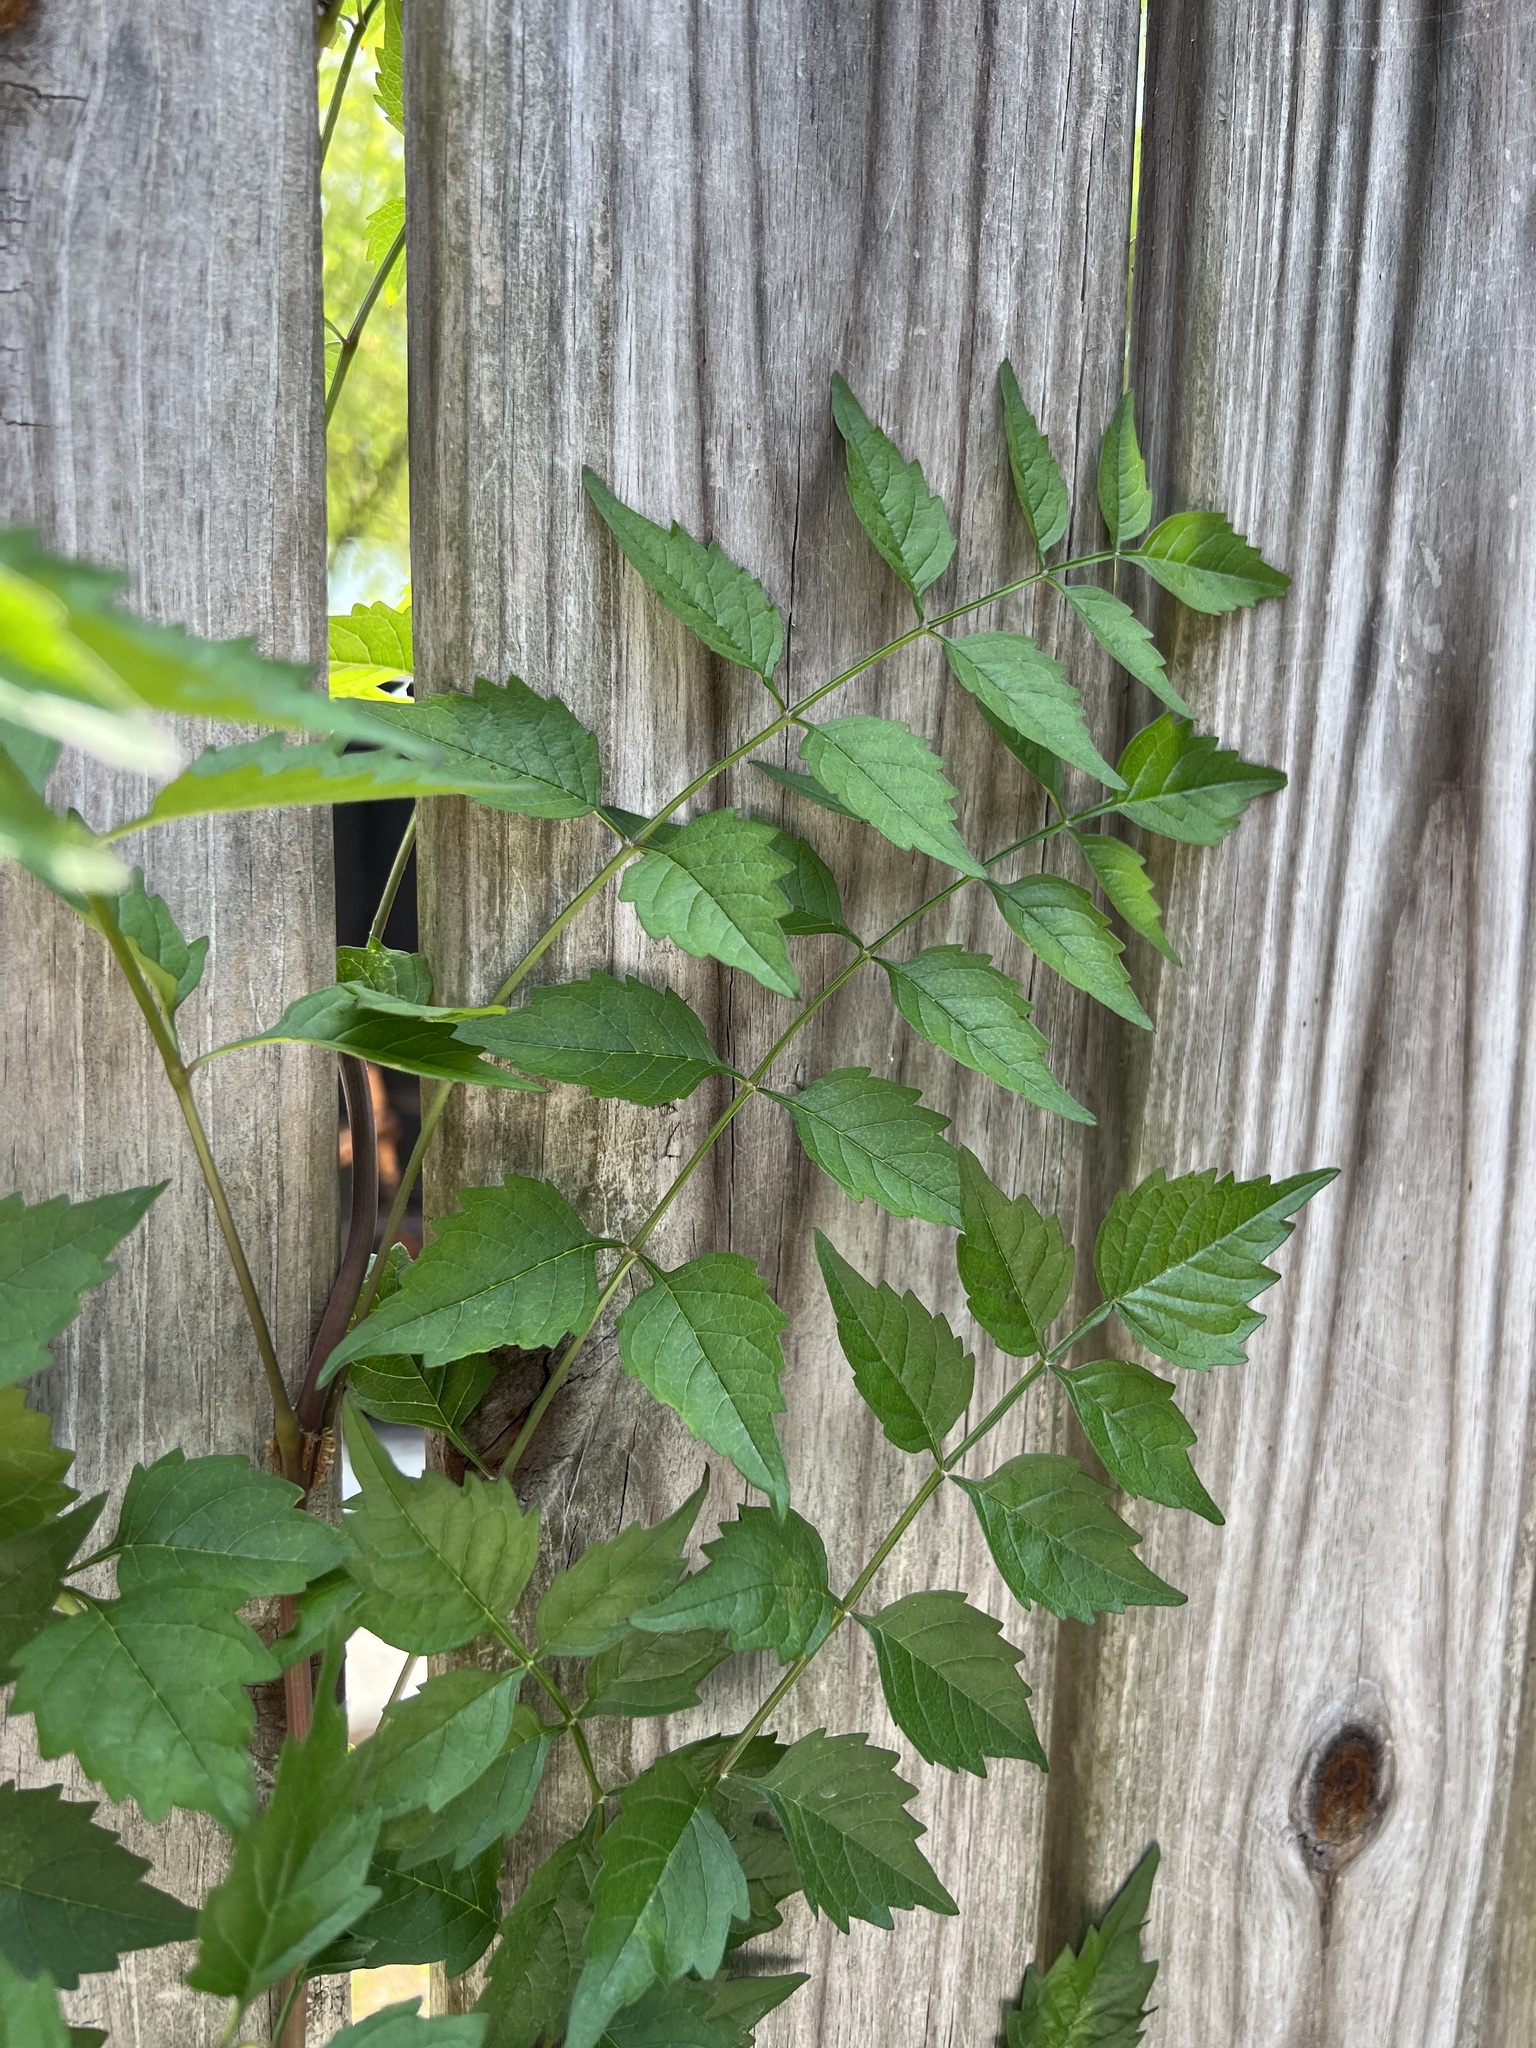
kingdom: Plantae
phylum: Tracheophyta
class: Magnoliopsida
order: Lamiales
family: Bignoniaceae
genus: Campsis
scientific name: Campsis radicans
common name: Trumpet-creeper
